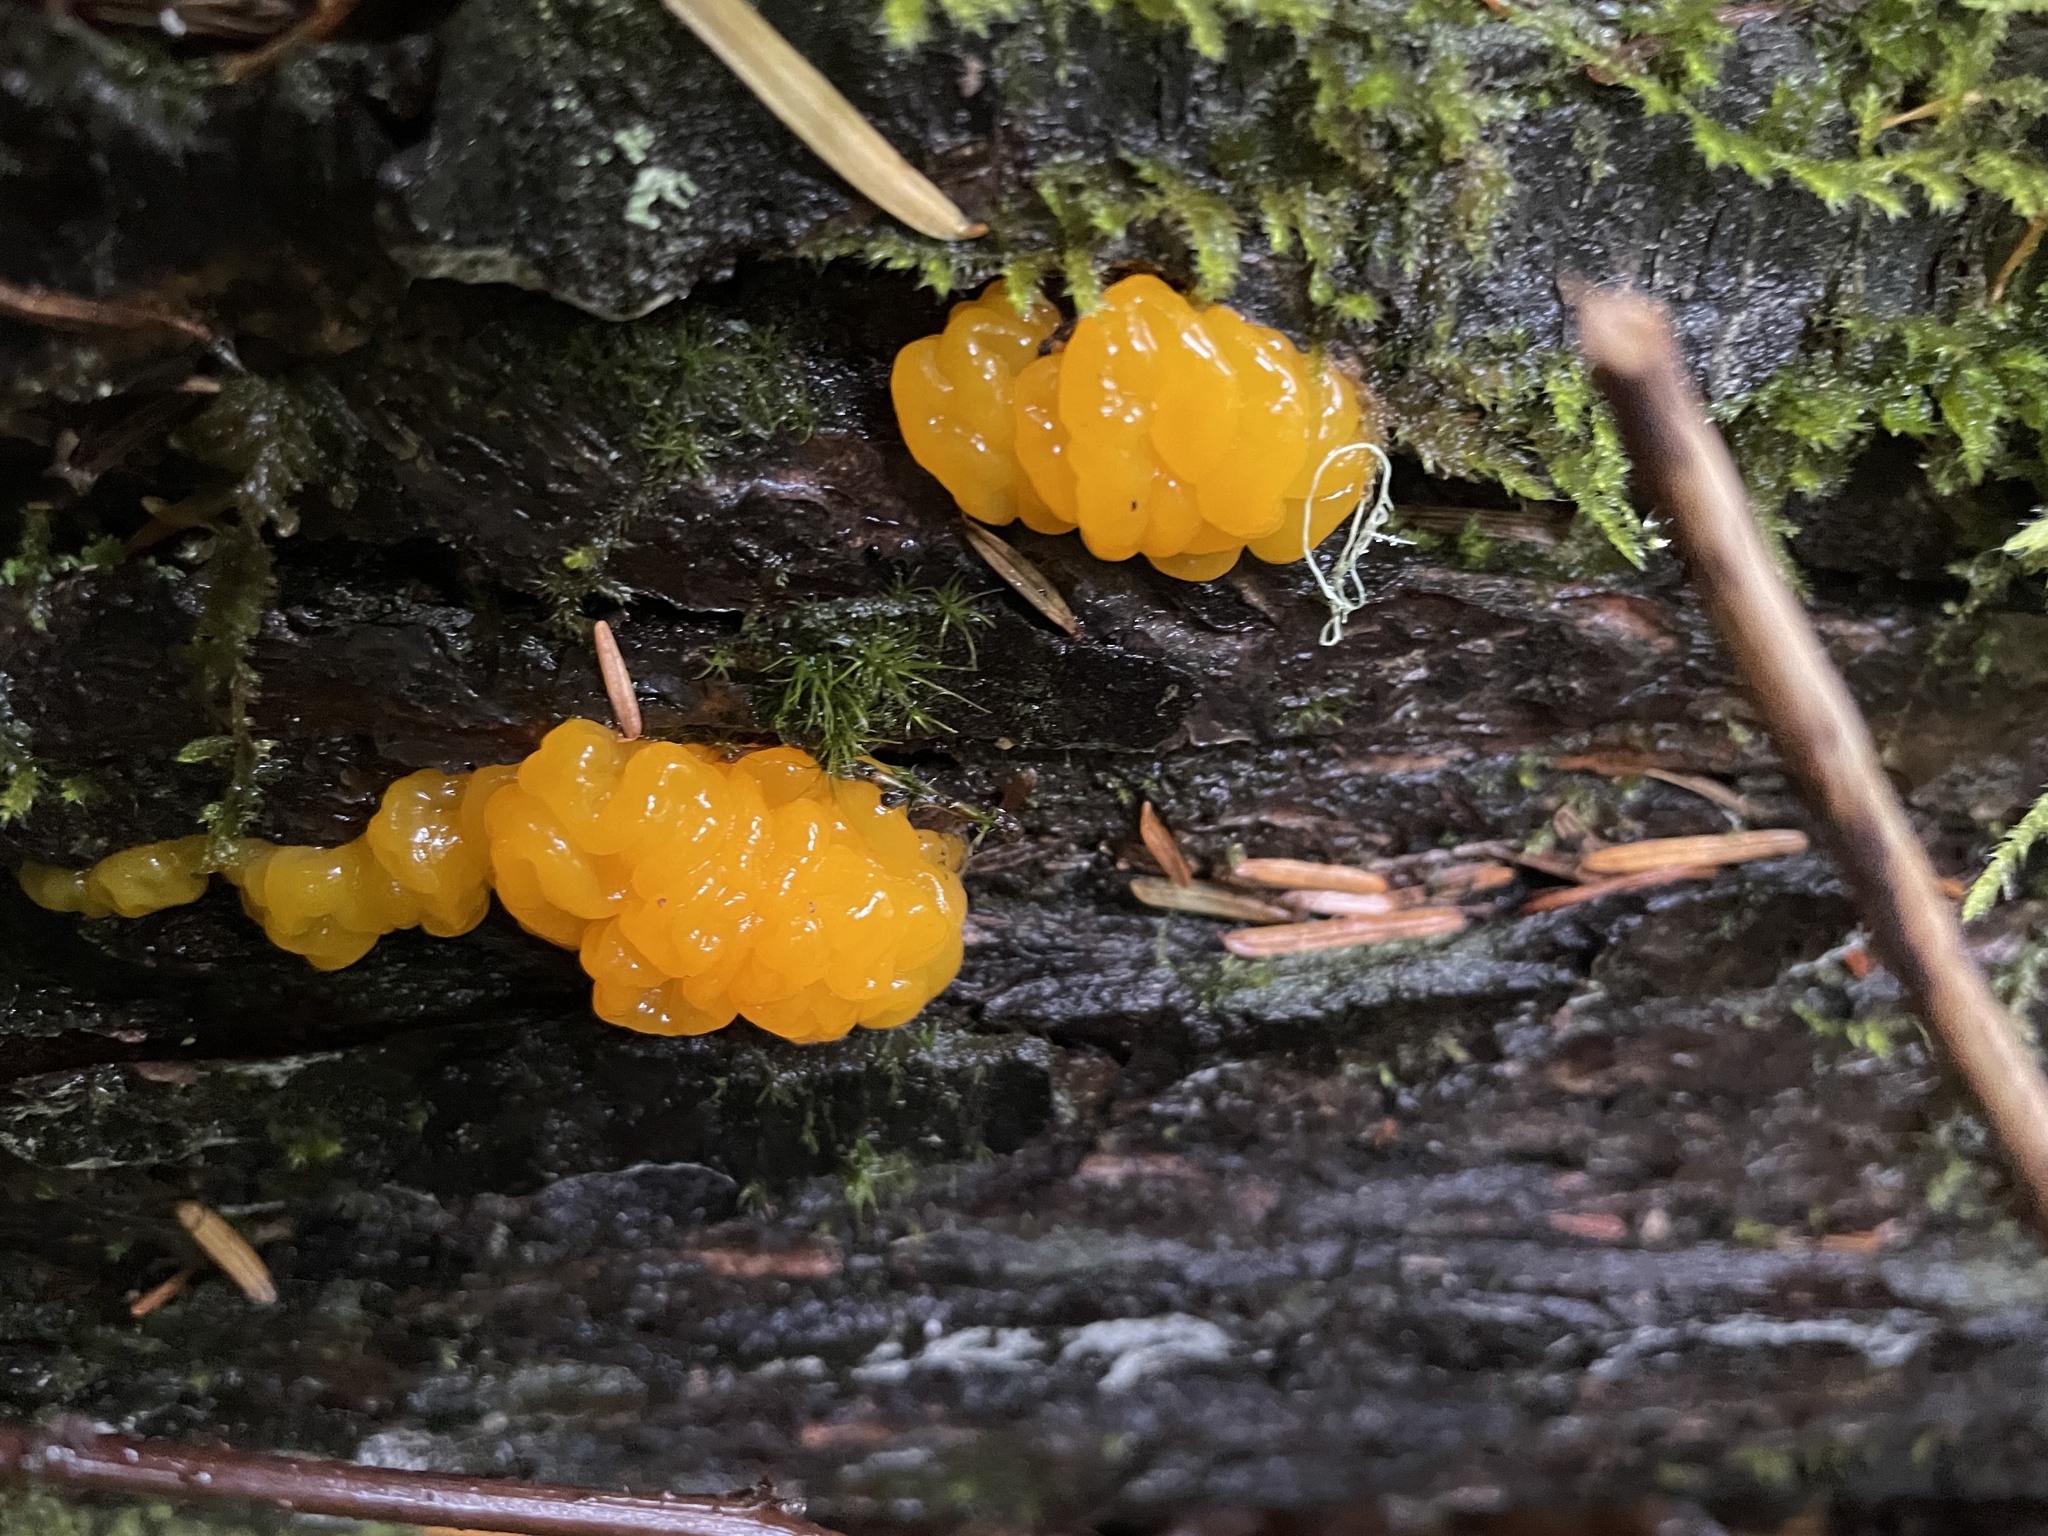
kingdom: Fungi
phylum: Basidiomycota
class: Dacrymycetes
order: Dacrymycetales
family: Dacrymycetaceae
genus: Dacrymyces
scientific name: Dacrymyces chrysospermus
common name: Orange jelly spot
